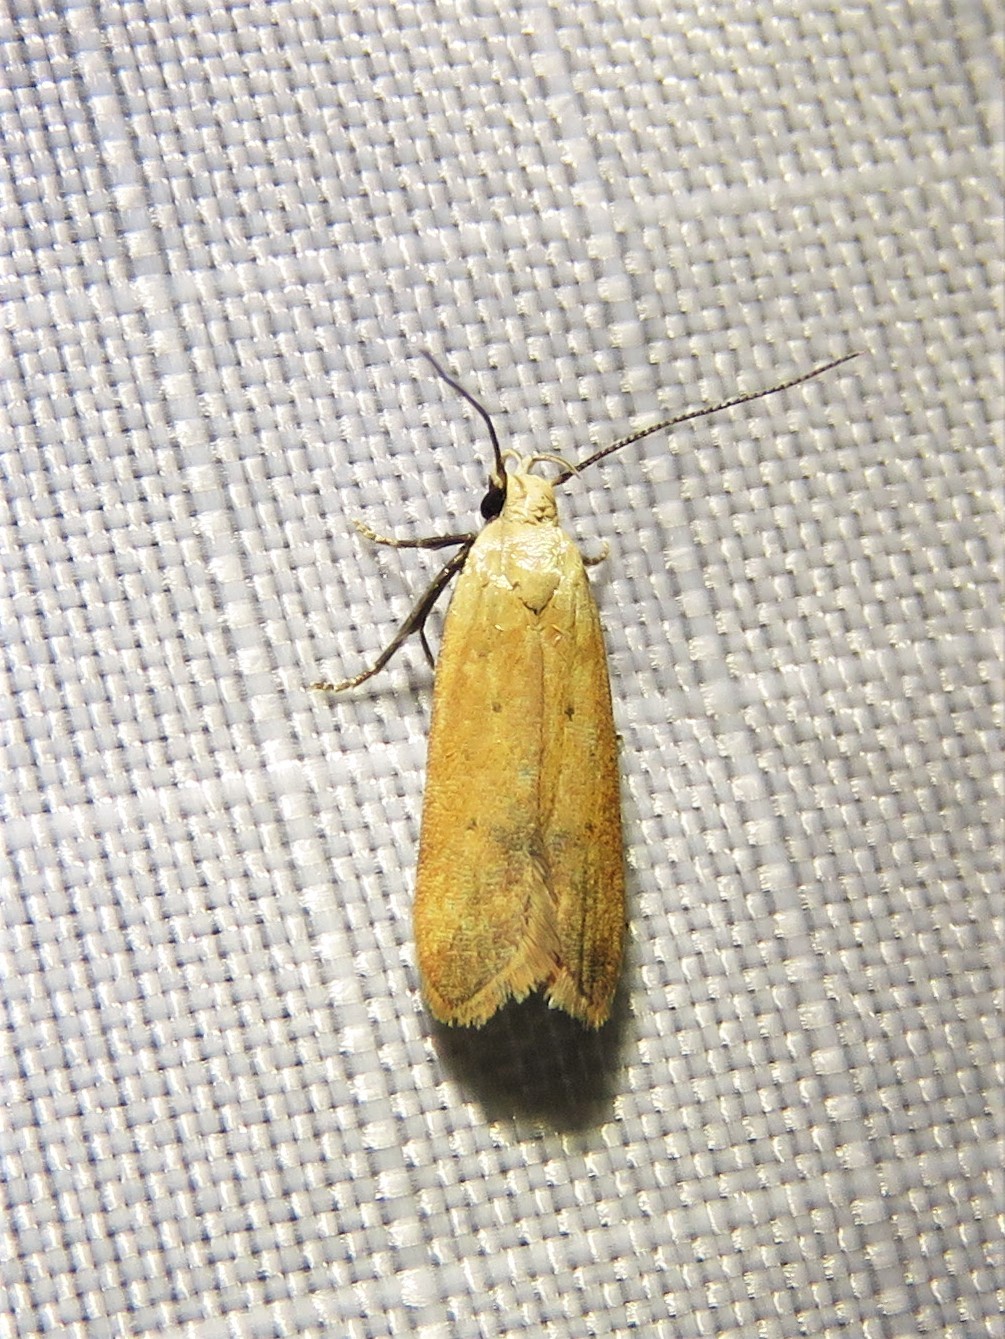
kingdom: Animalia
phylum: Arthropoda
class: Insecta
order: Lepidoptera
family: Gelechiidae
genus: Anacampsis
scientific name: Anacampsis fullonella
